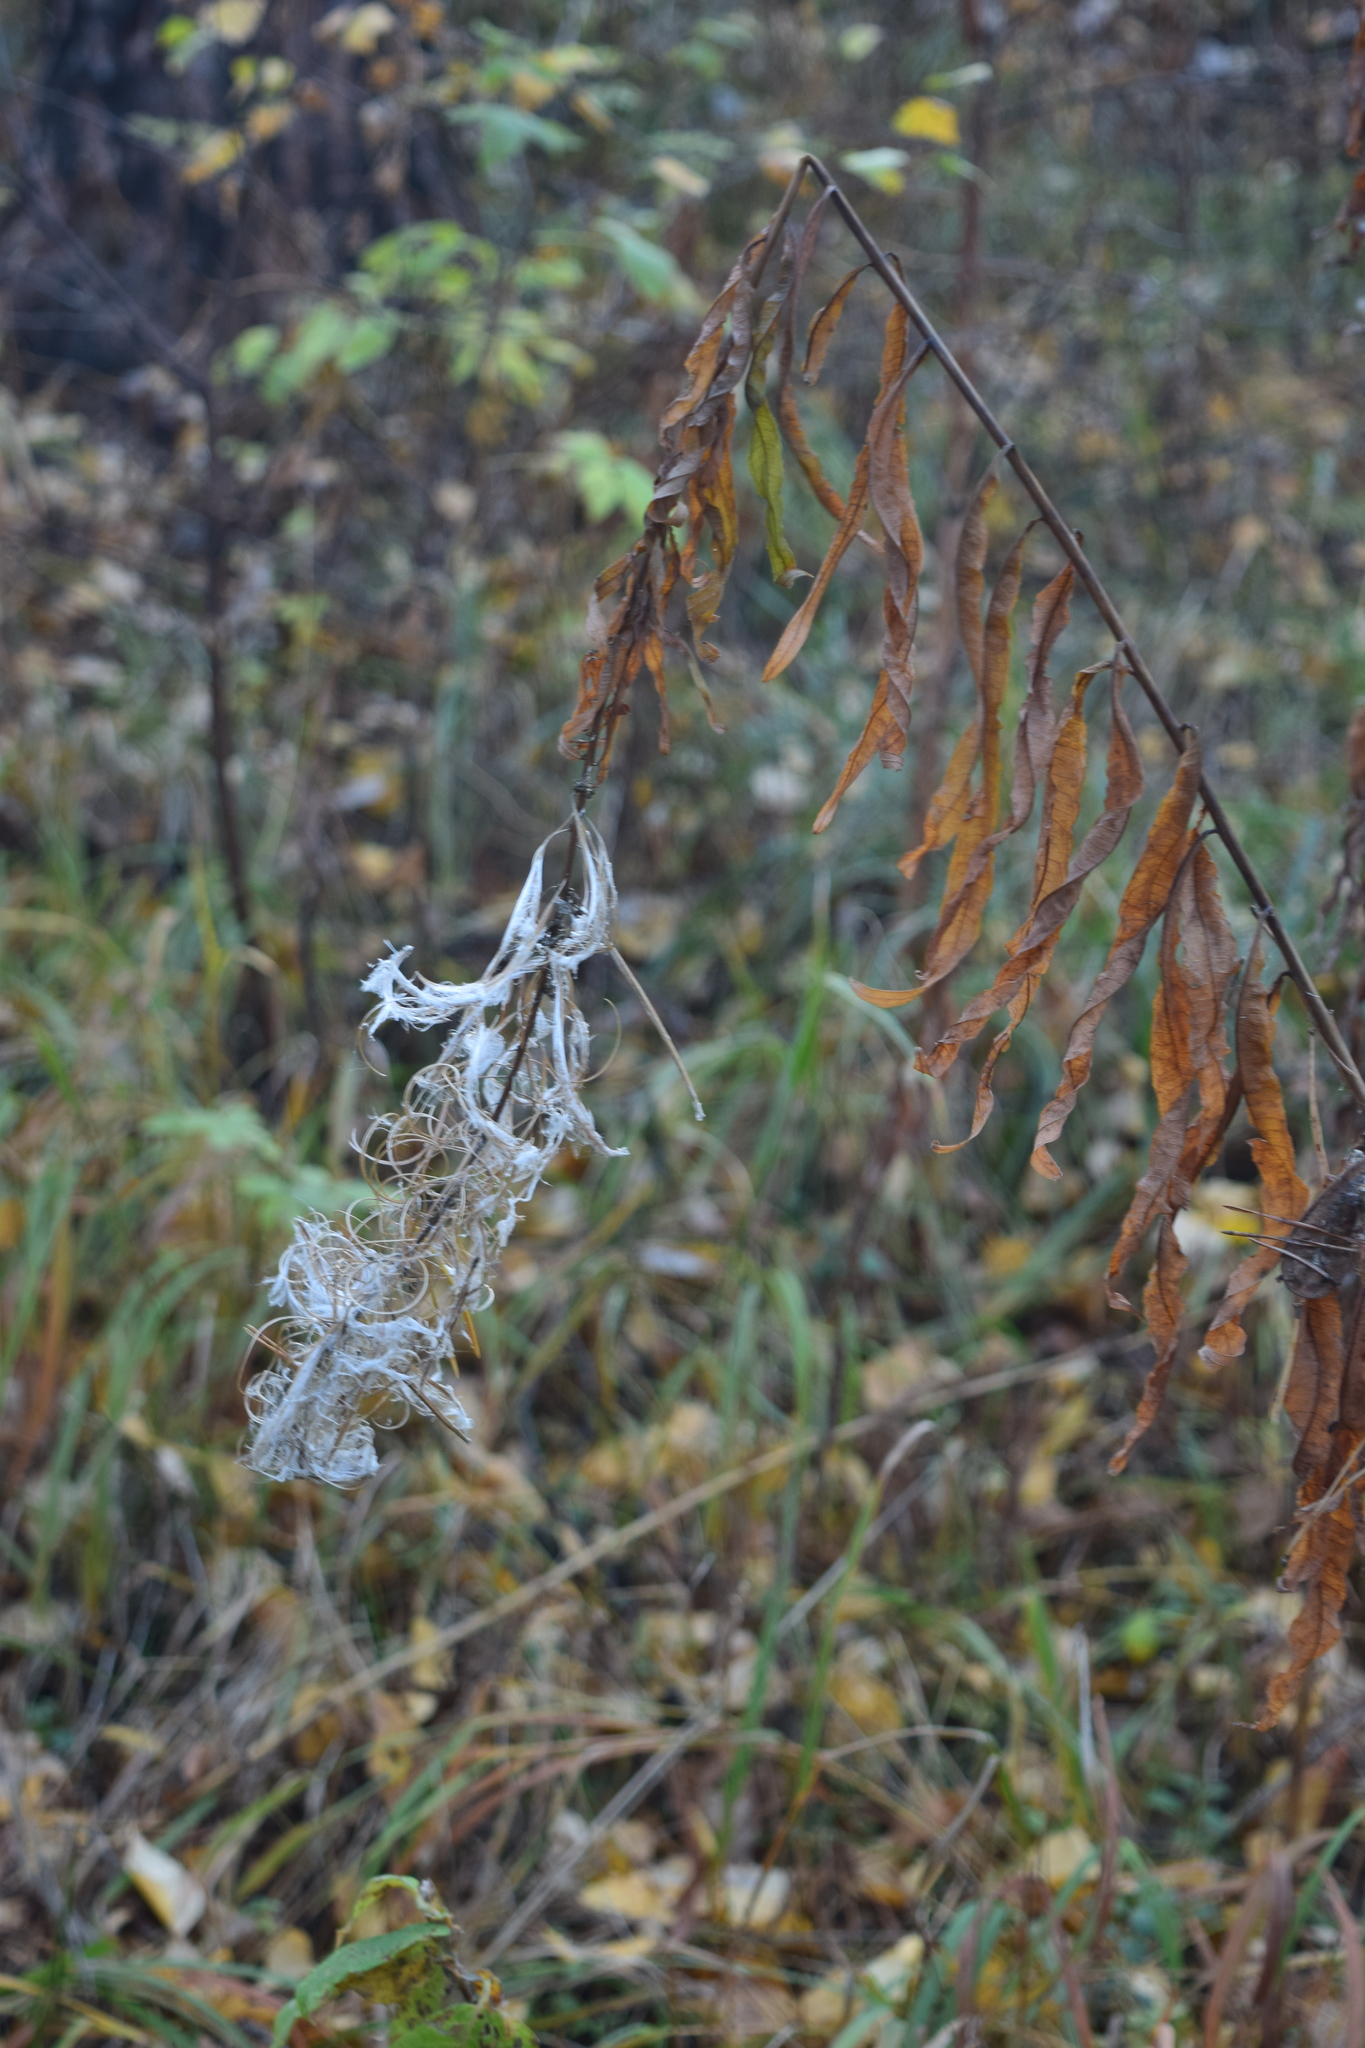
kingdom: Plantae
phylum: Tracheophyta
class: Magnoliopsida
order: Myrtales
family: Onagraceae
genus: Chamaenerion
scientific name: Chamaenerion angustifolium
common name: Fireweed
